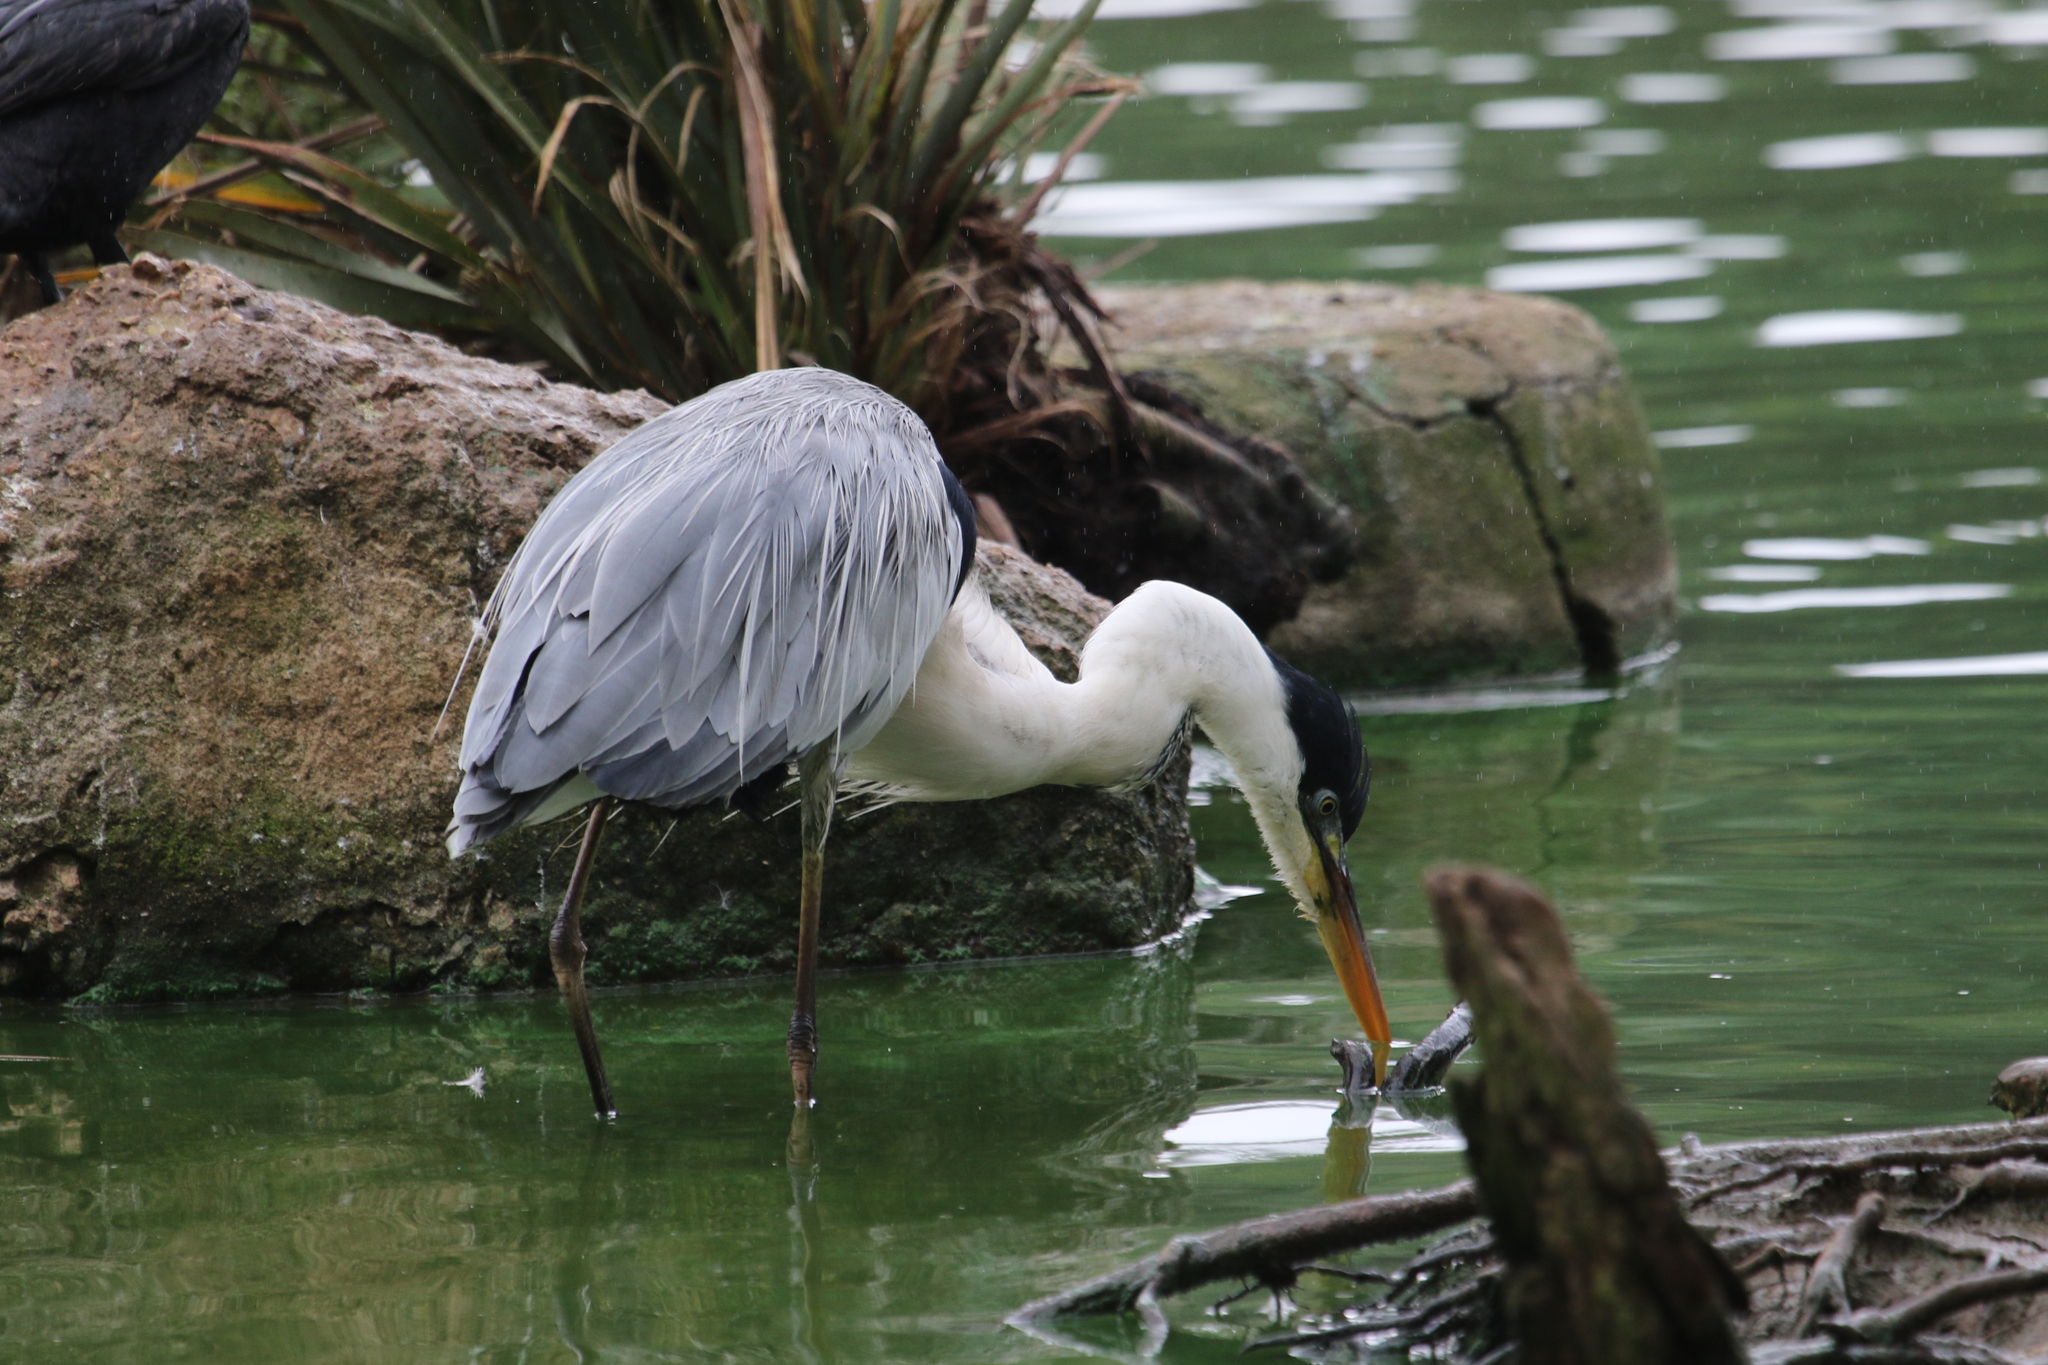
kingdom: Animalia
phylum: Chordata
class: Aves
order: Pelecaniformes
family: Ardeidae
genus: Ardea
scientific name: Ardea cocoi
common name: Cocoi heron
